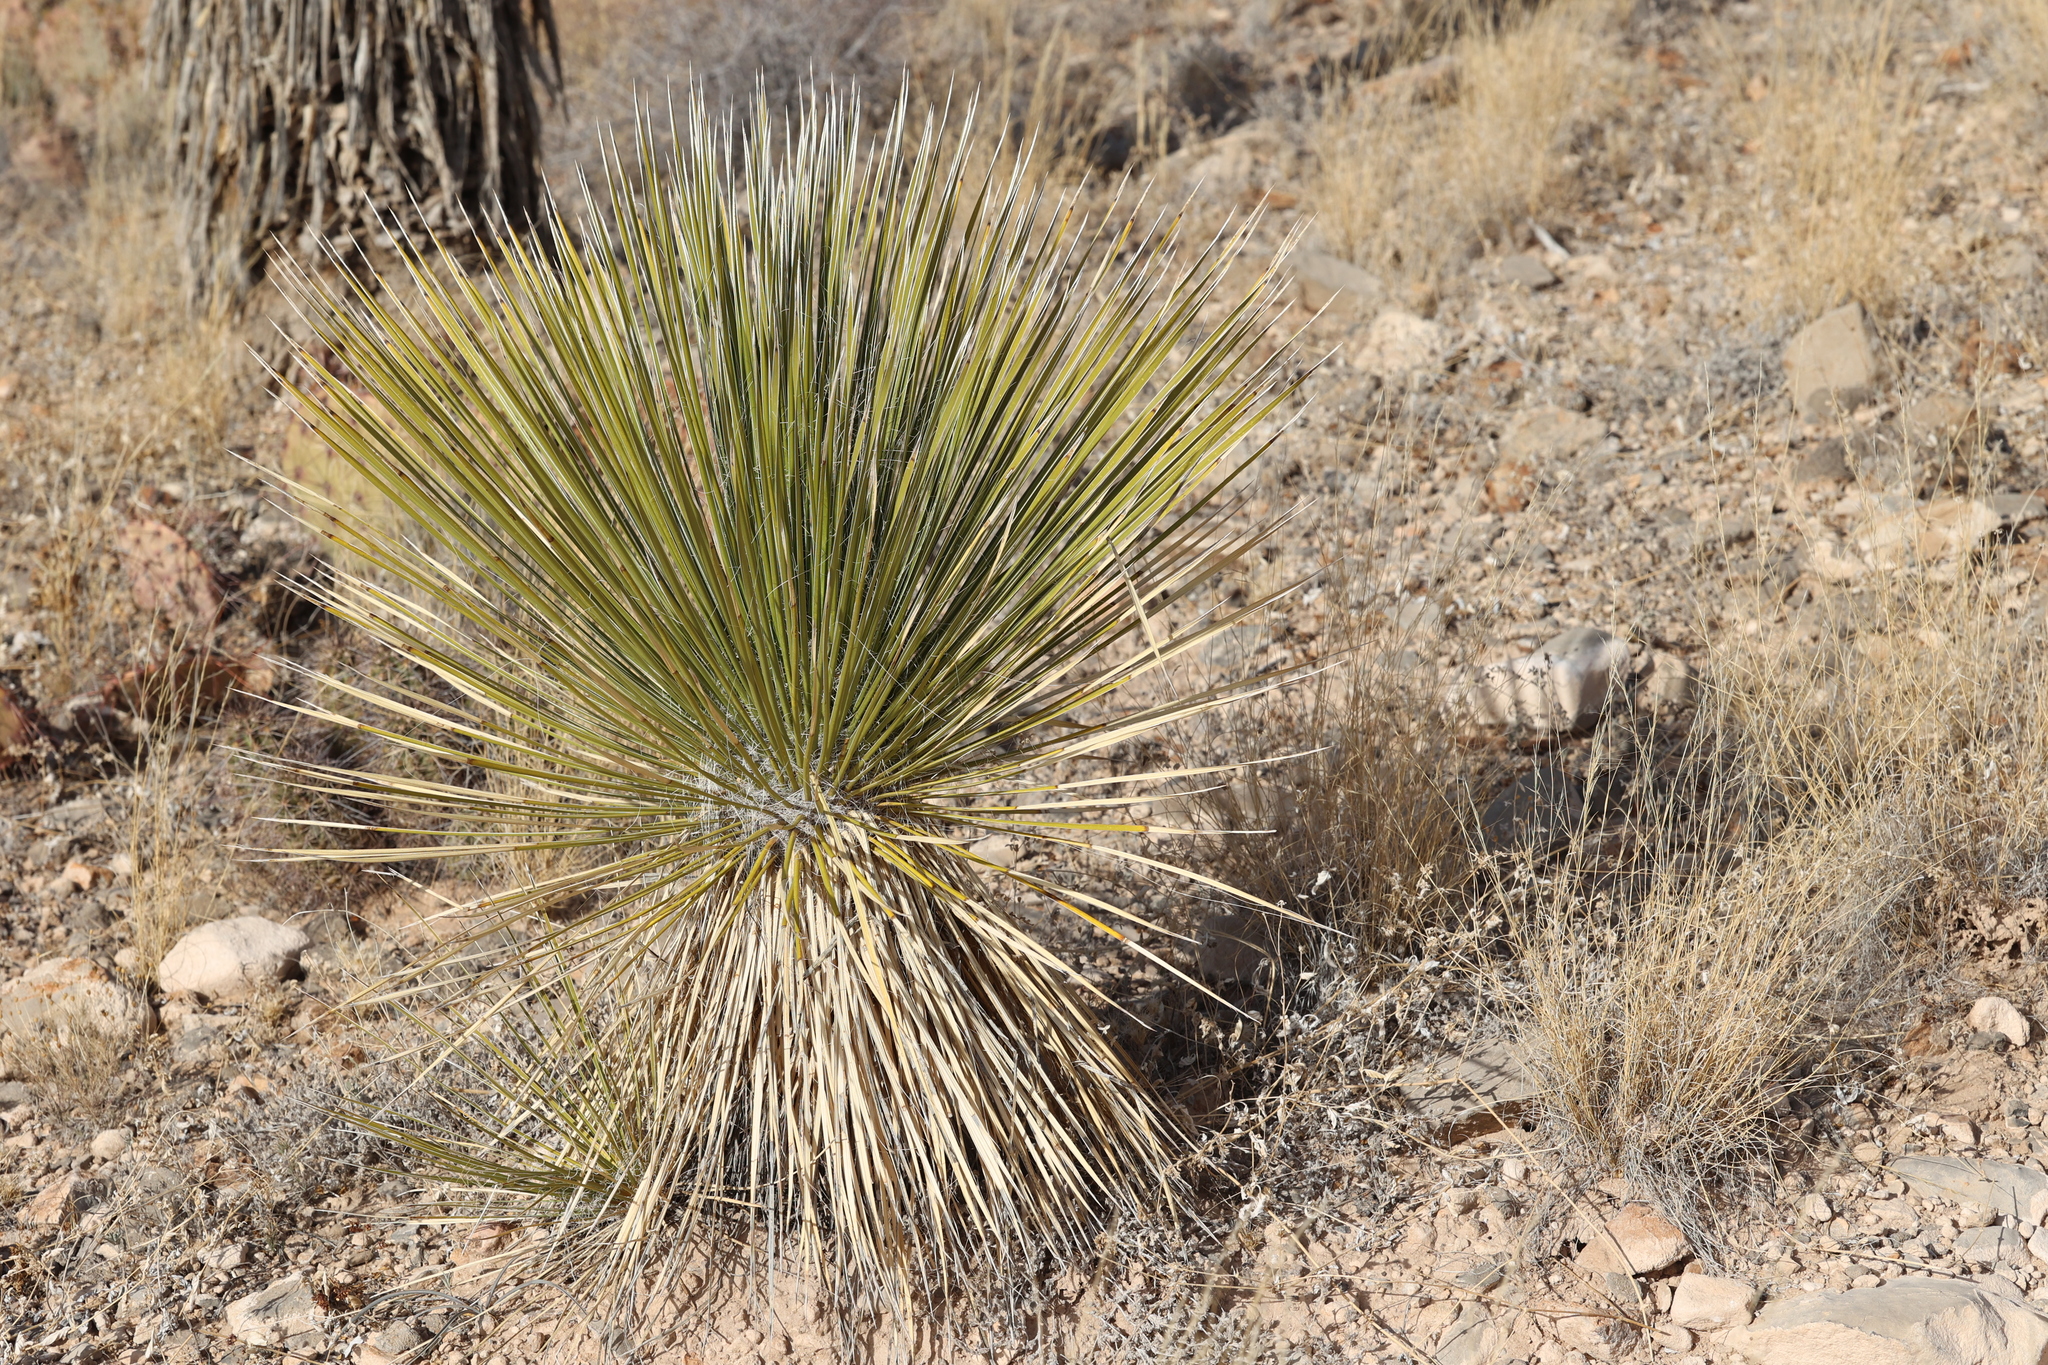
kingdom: Plantae
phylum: Tracheophyta
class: Liliopsida
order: Asparagales
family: Asparagaceae
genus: Yucca
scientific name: Yucca elata
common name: Palmella
